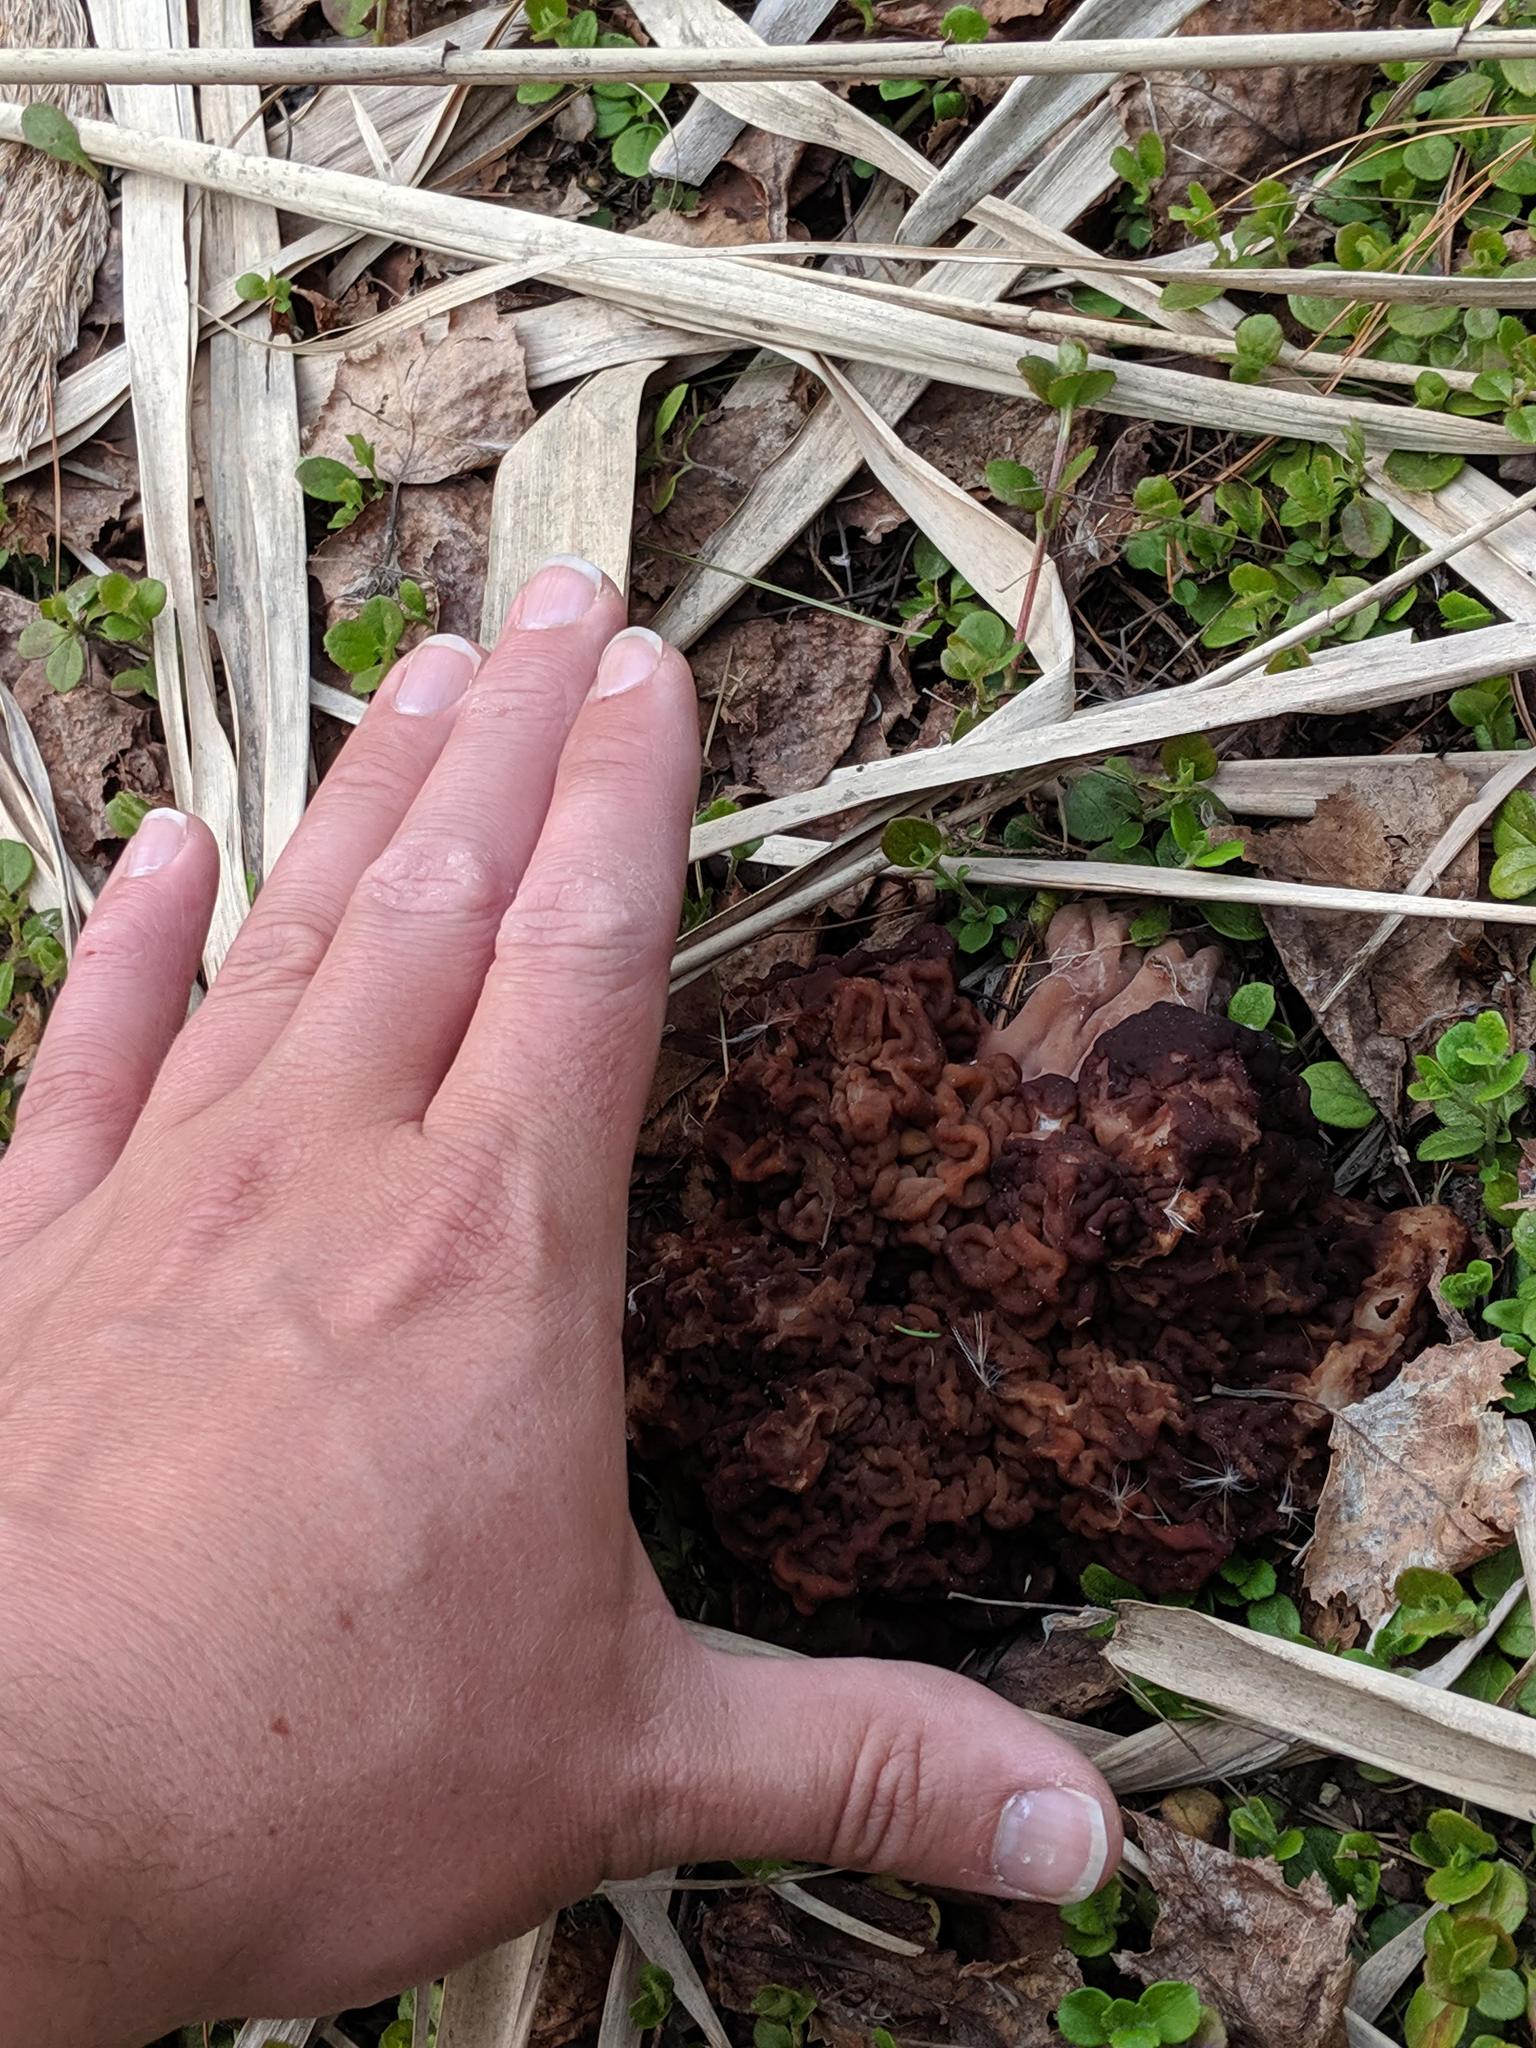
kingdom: Fungi
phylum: Ascomycota
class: Pezizomycetes
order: Pezizales
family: Discinaceae
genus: Gyromitra
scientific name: Gyromitra esculenta
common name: False morel
